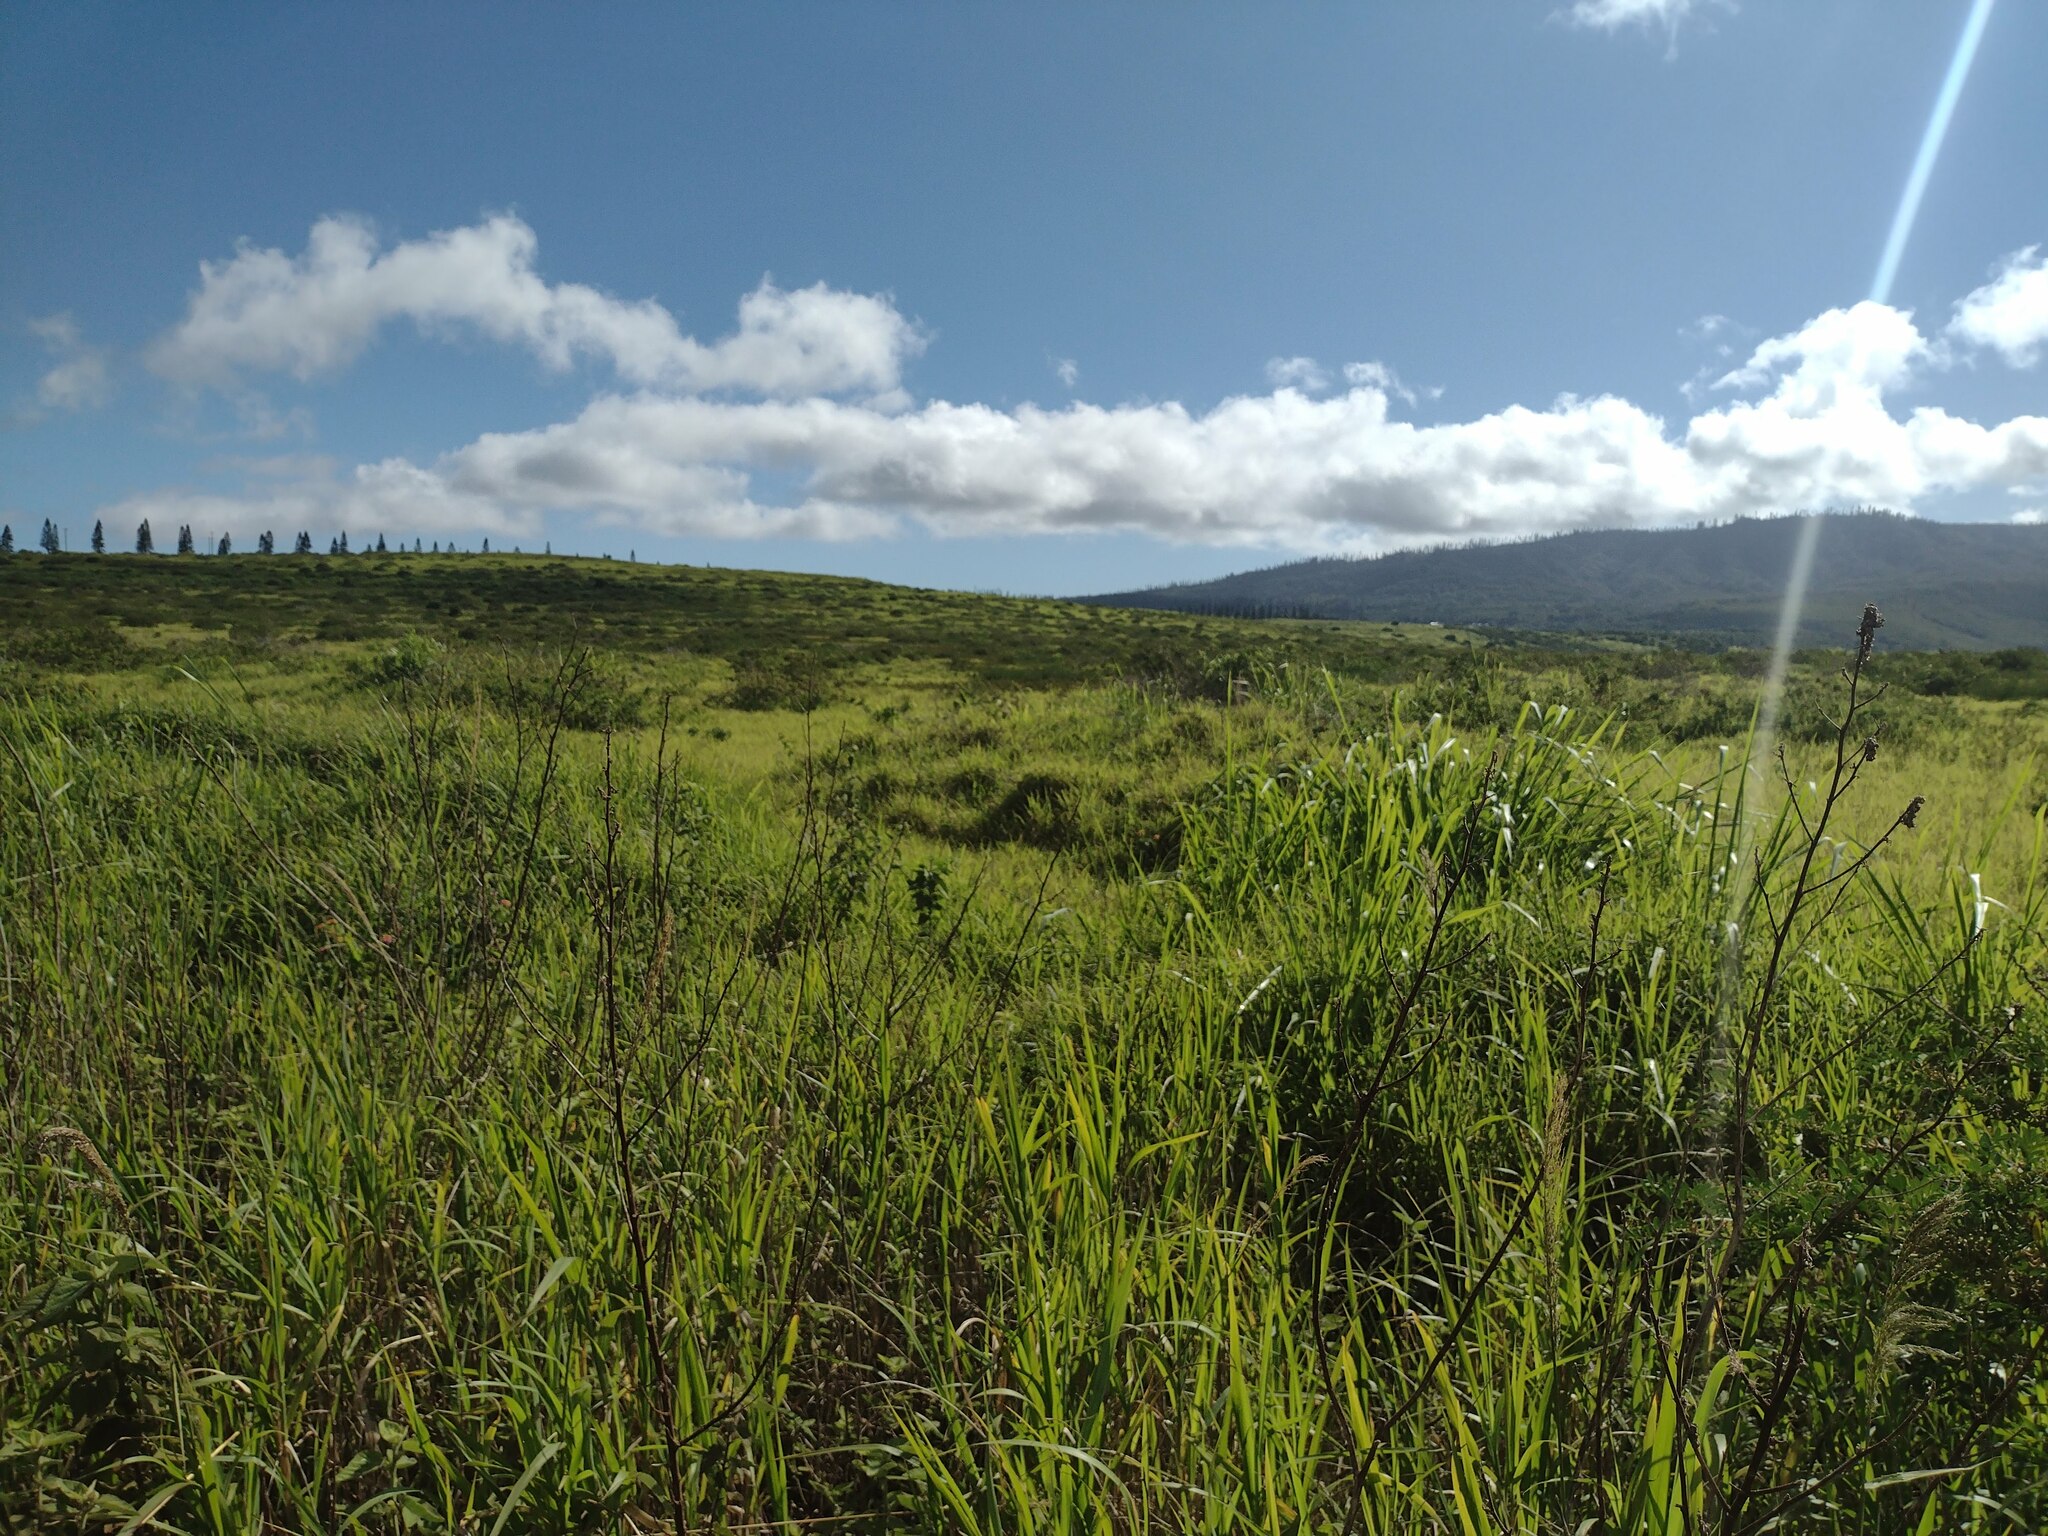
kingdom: Plantae
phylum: Tracheophyta
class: Liliopsida
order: Poales
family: Poaceae
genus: Megathyrsus
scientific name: Megathyrsus maximus
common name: Guineagrass
